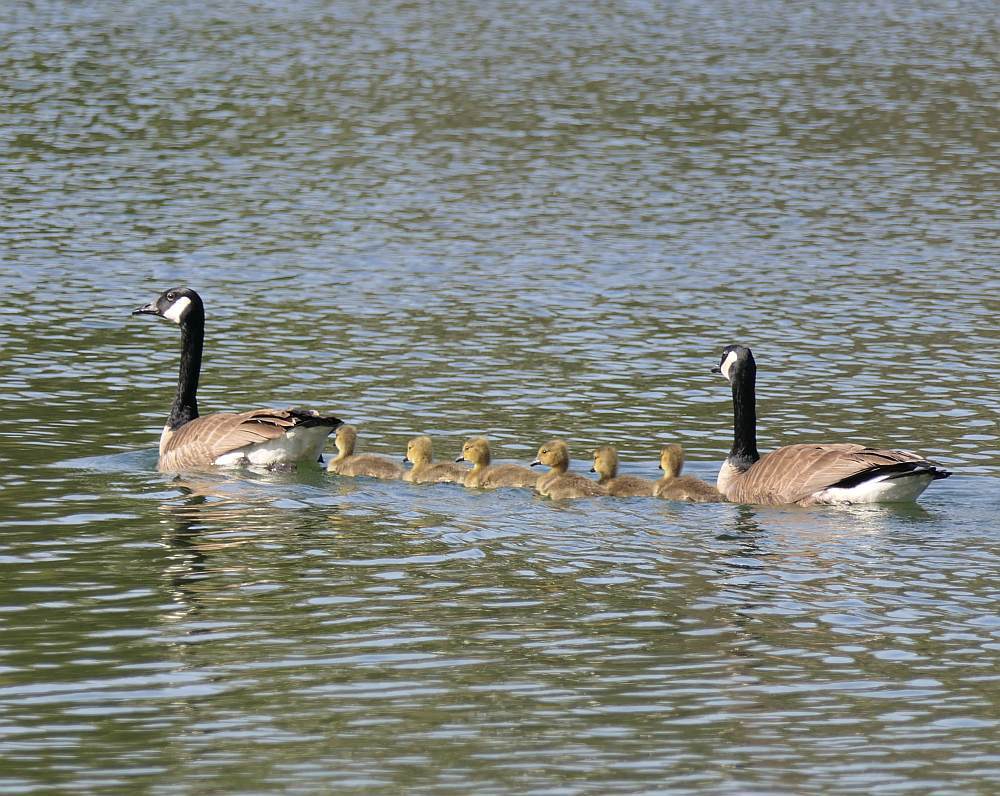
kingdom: Animalia
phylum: Chordata
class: Aves
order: Anseriformes
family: Anatidae
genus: Branta
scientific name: Branta canadensis
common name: Canada goose
